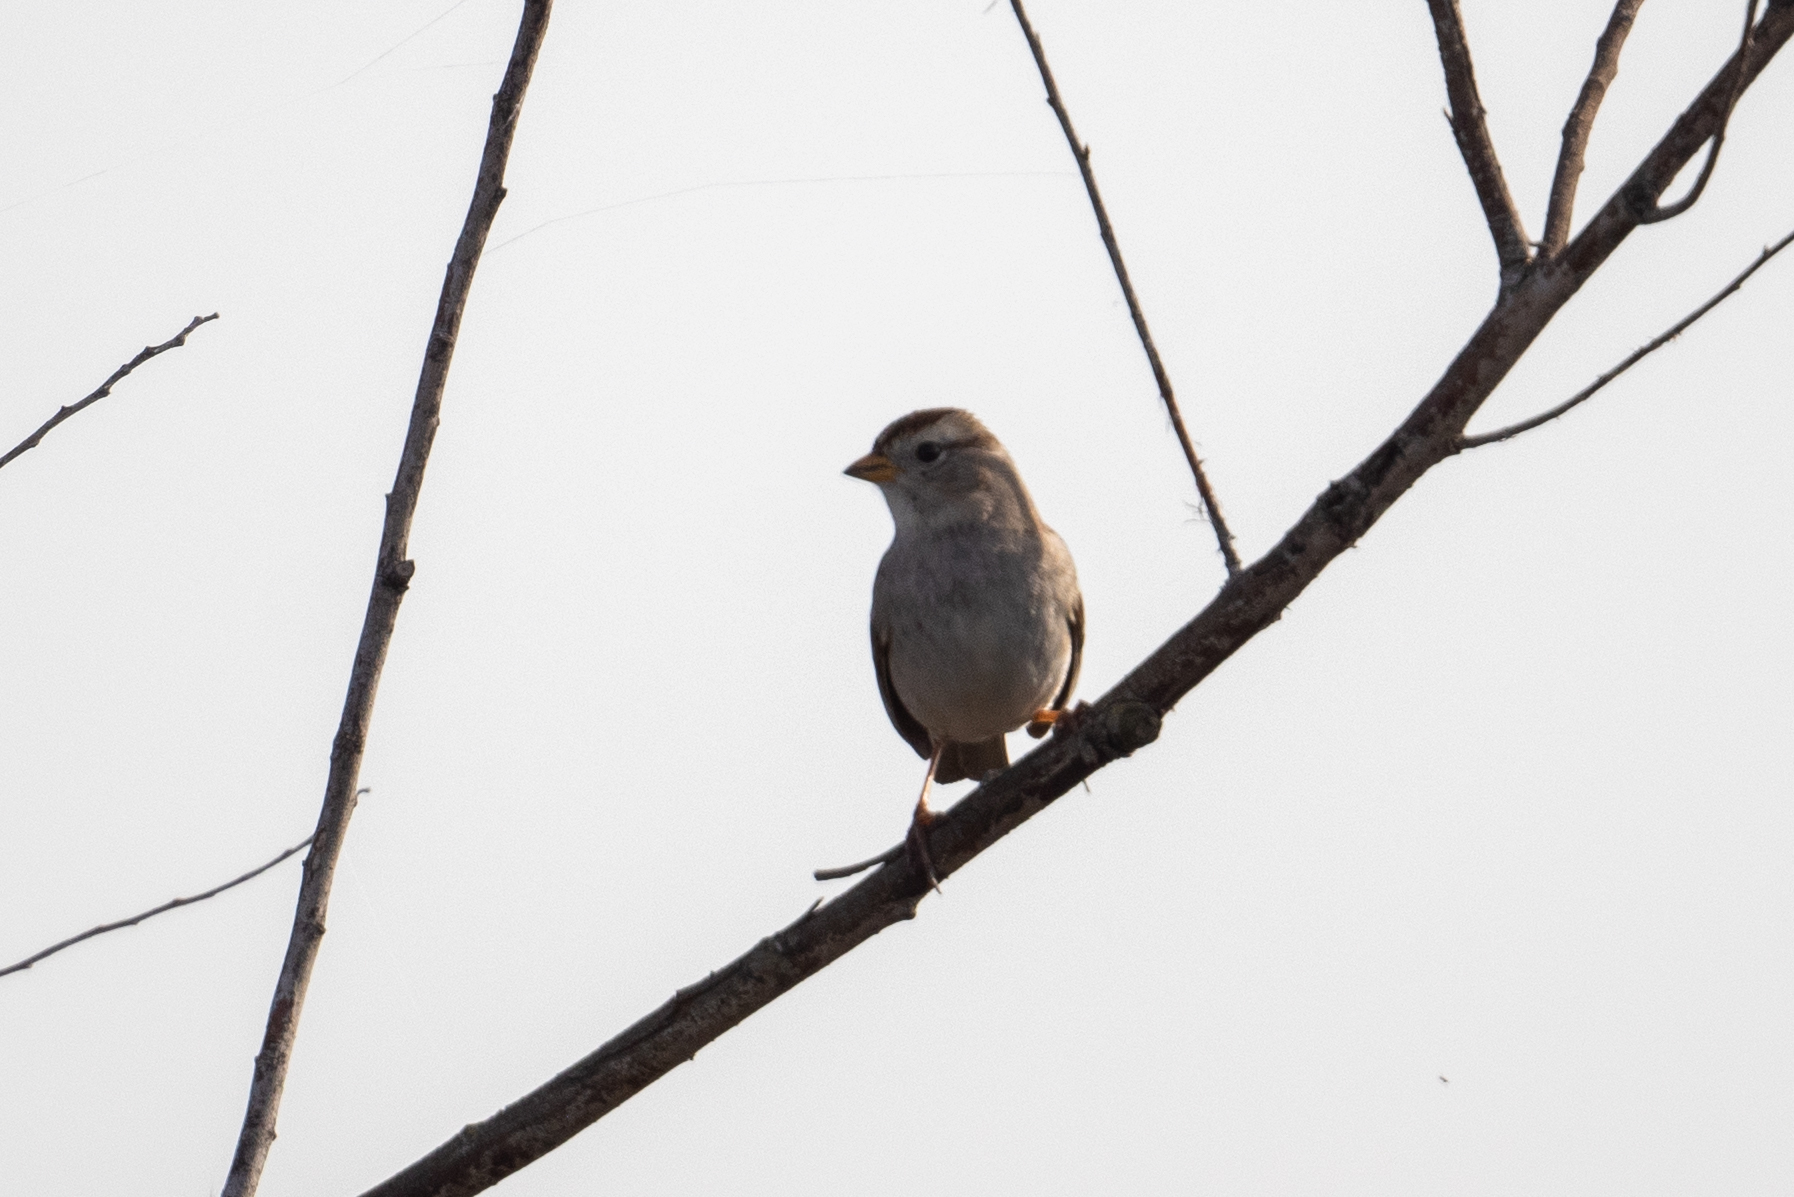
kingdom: Animalia
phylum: Chordata
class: Aves
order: Passeriformes
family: Passerellidae
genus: Zonotrichia
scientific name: Zonotrichia leucophrys
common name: White-crowned sparrow
